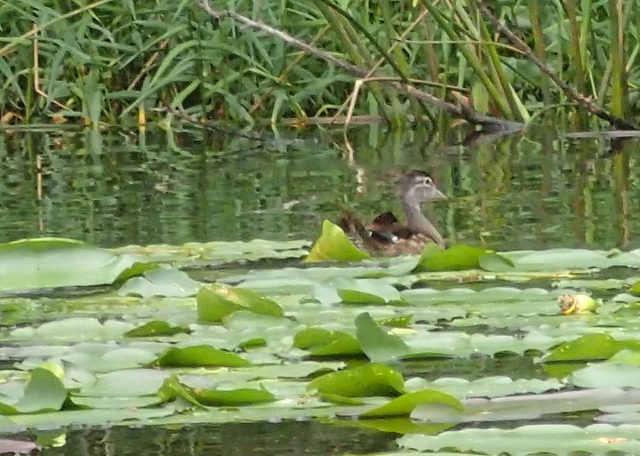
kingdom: Animalia
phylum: Chordata
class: Aves
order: Anseriformes
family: Anatidae
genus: Aix
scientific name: Aix sponsa
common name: Wood duck
